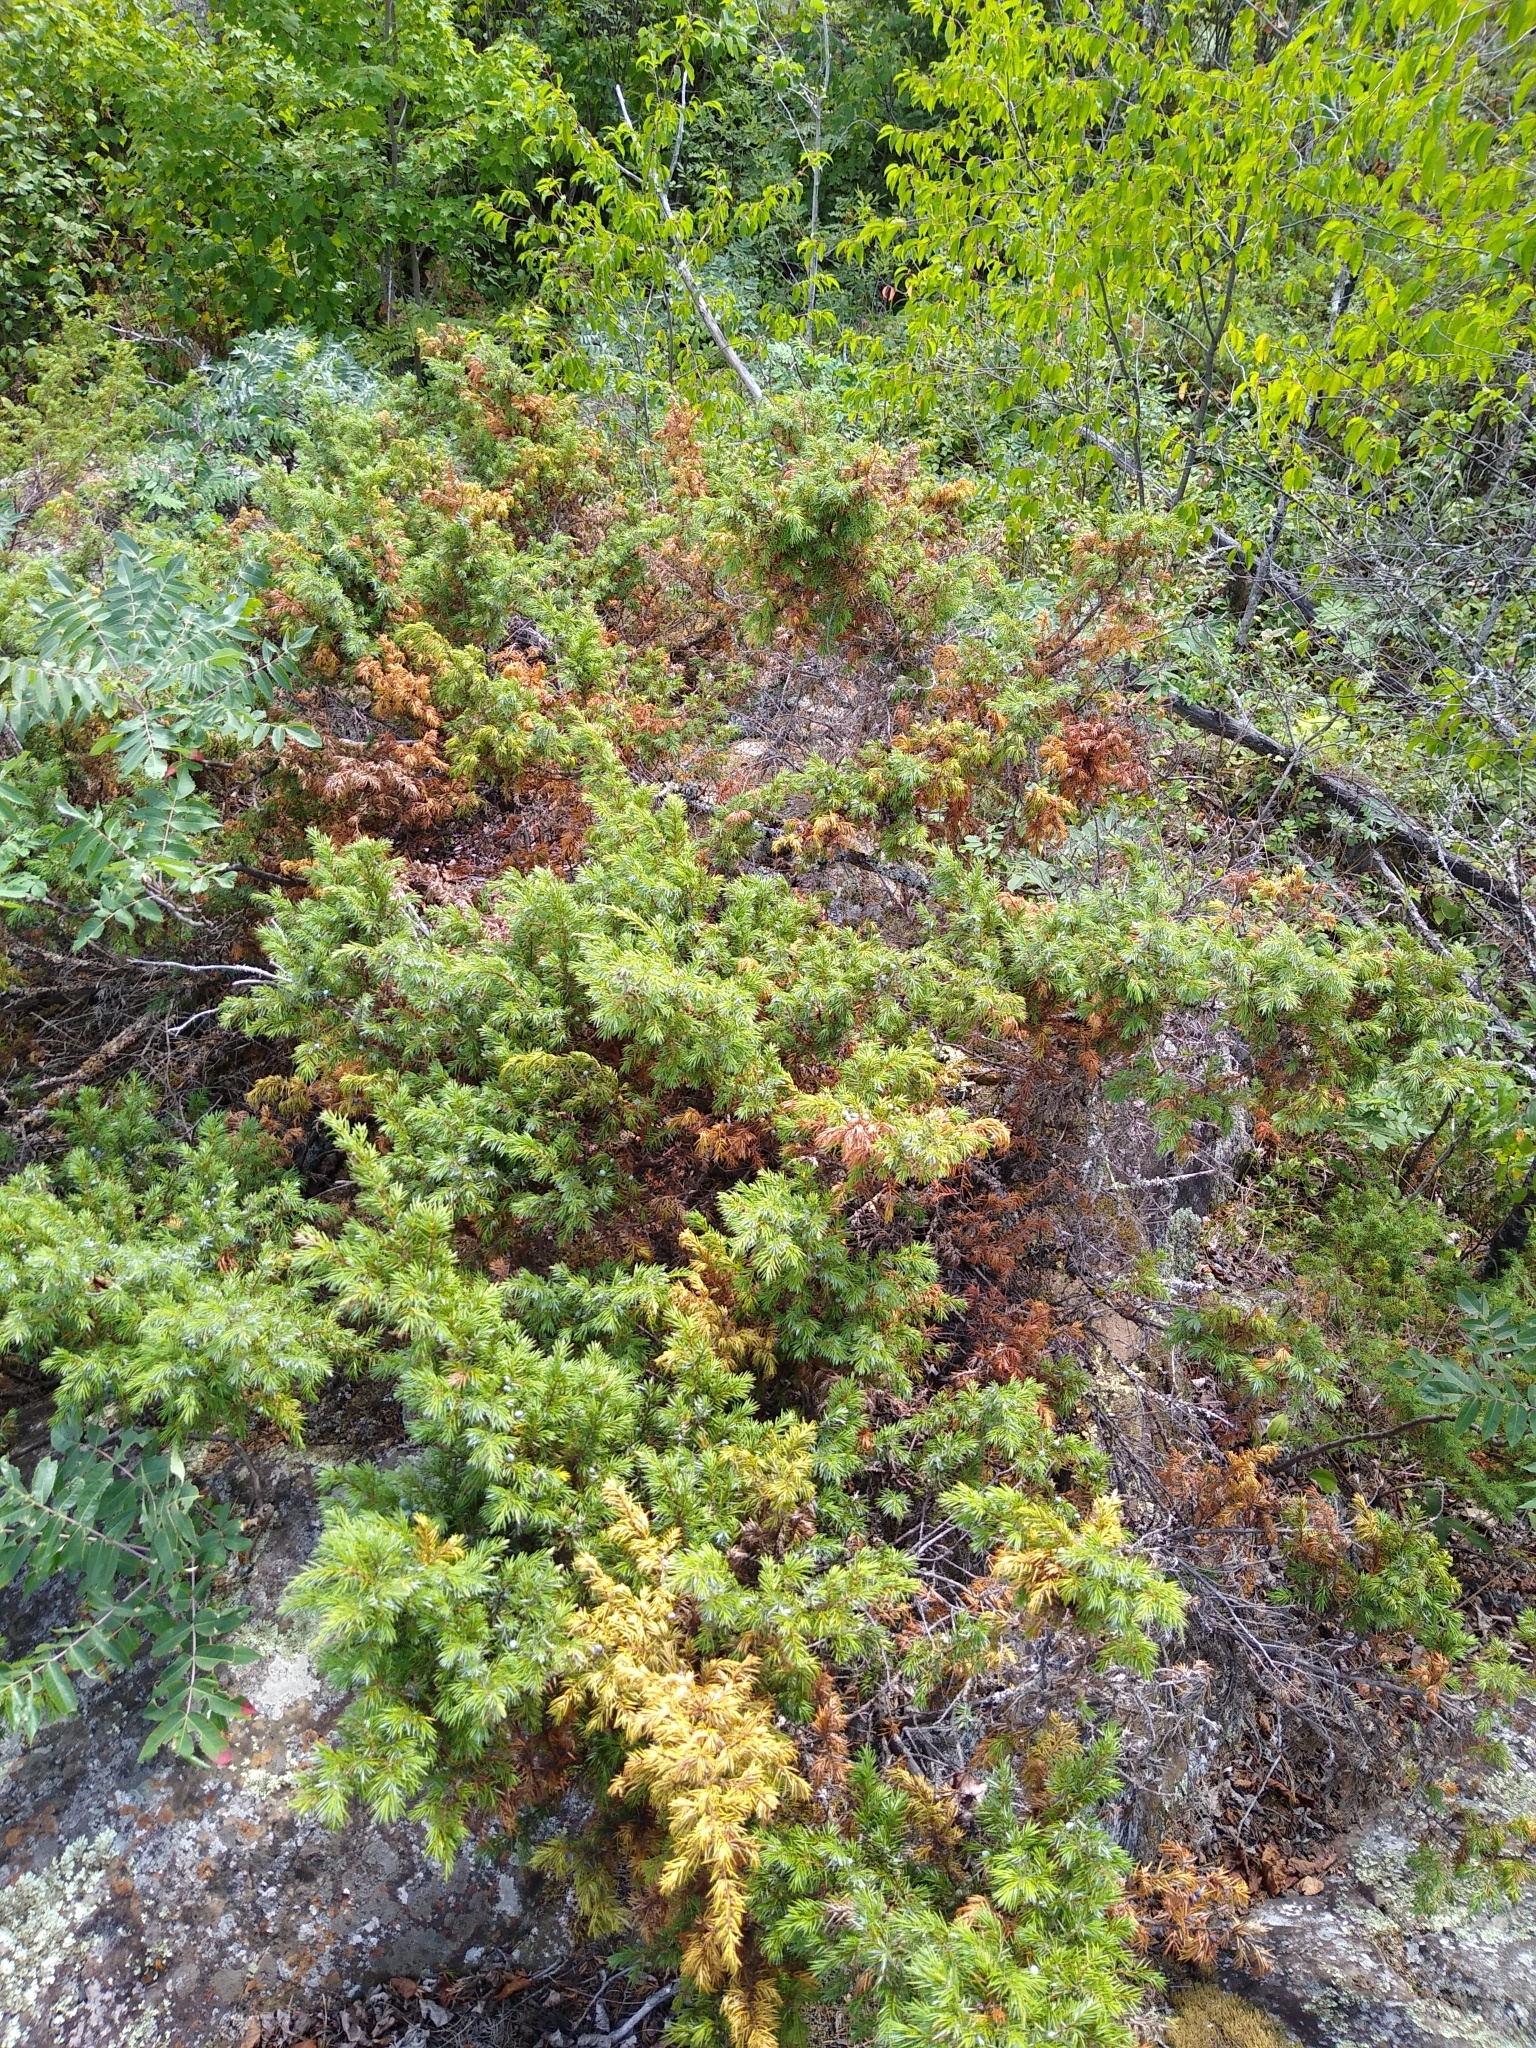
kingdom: Plantae
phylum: Tracheophyta
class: Pinopsida
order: Pinales
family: Cupressaceae
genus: Juniperus
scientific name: Juniperus communis
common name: Common juniper
